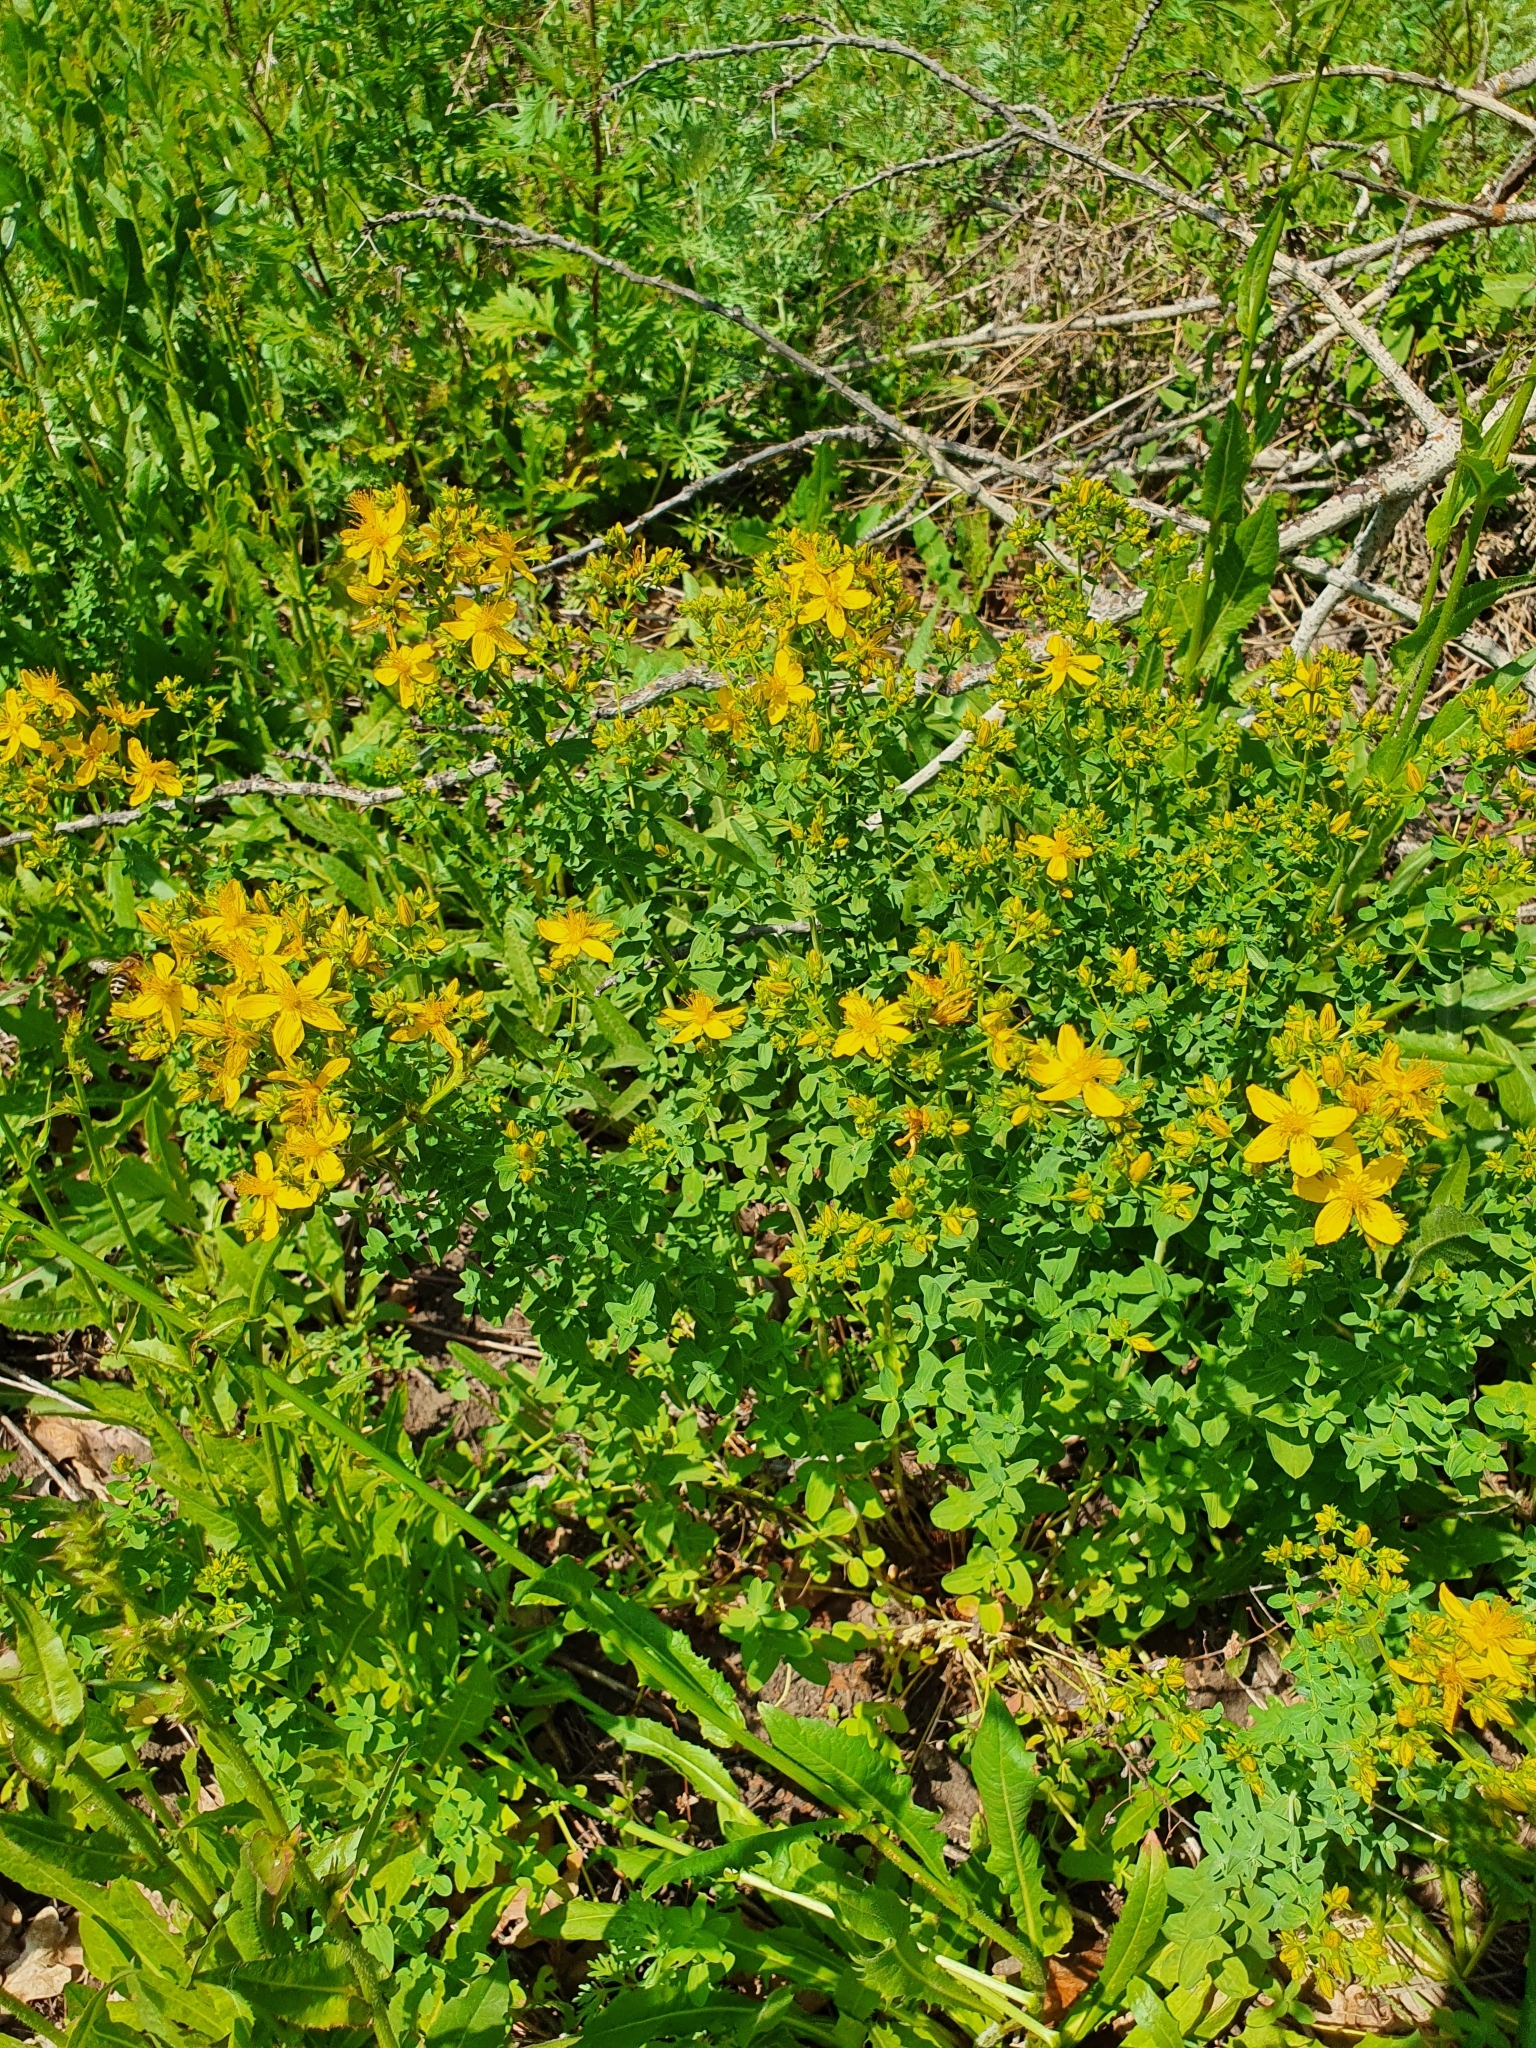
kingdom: Plantae
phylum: Tracheophyta
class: Magnoliopsida
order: Malpighiales
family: Hypericaceae
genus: Hypericum
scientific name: Hypericum perforatum
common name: Common st. johnswort
